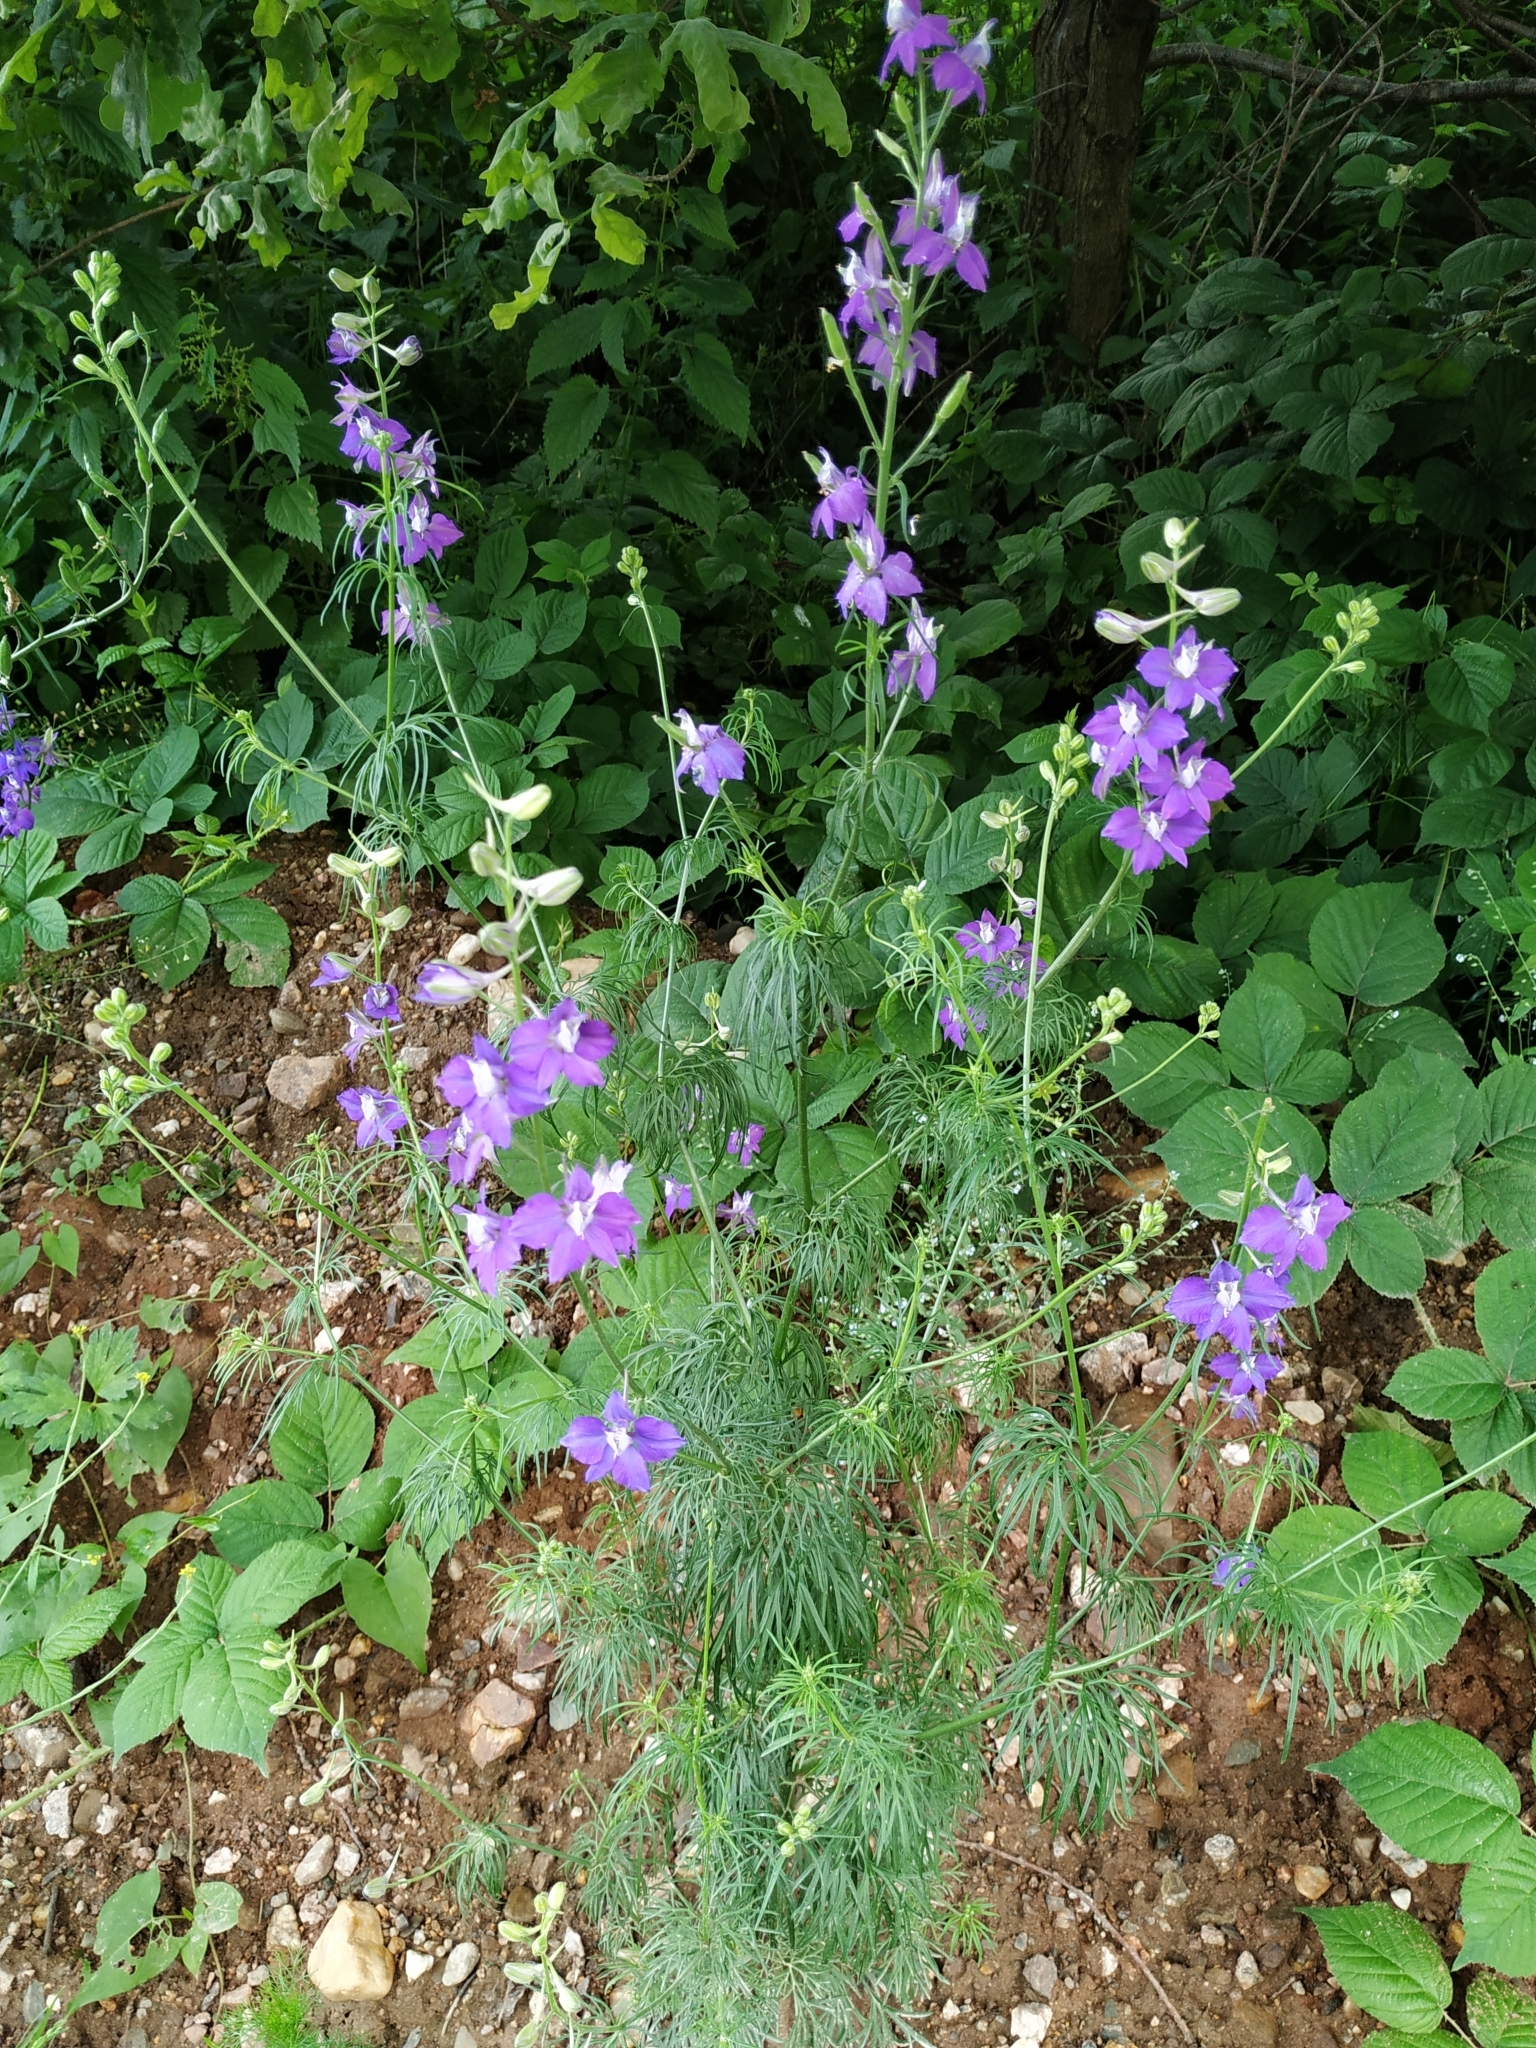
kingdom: Plantae
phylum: Tracheophyta
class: Magnoliopsida
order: Ranunculales
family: Ranunculaceae
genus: Delphinium
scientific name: Delphinium ajacis
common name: Doubtful knight's-spur
